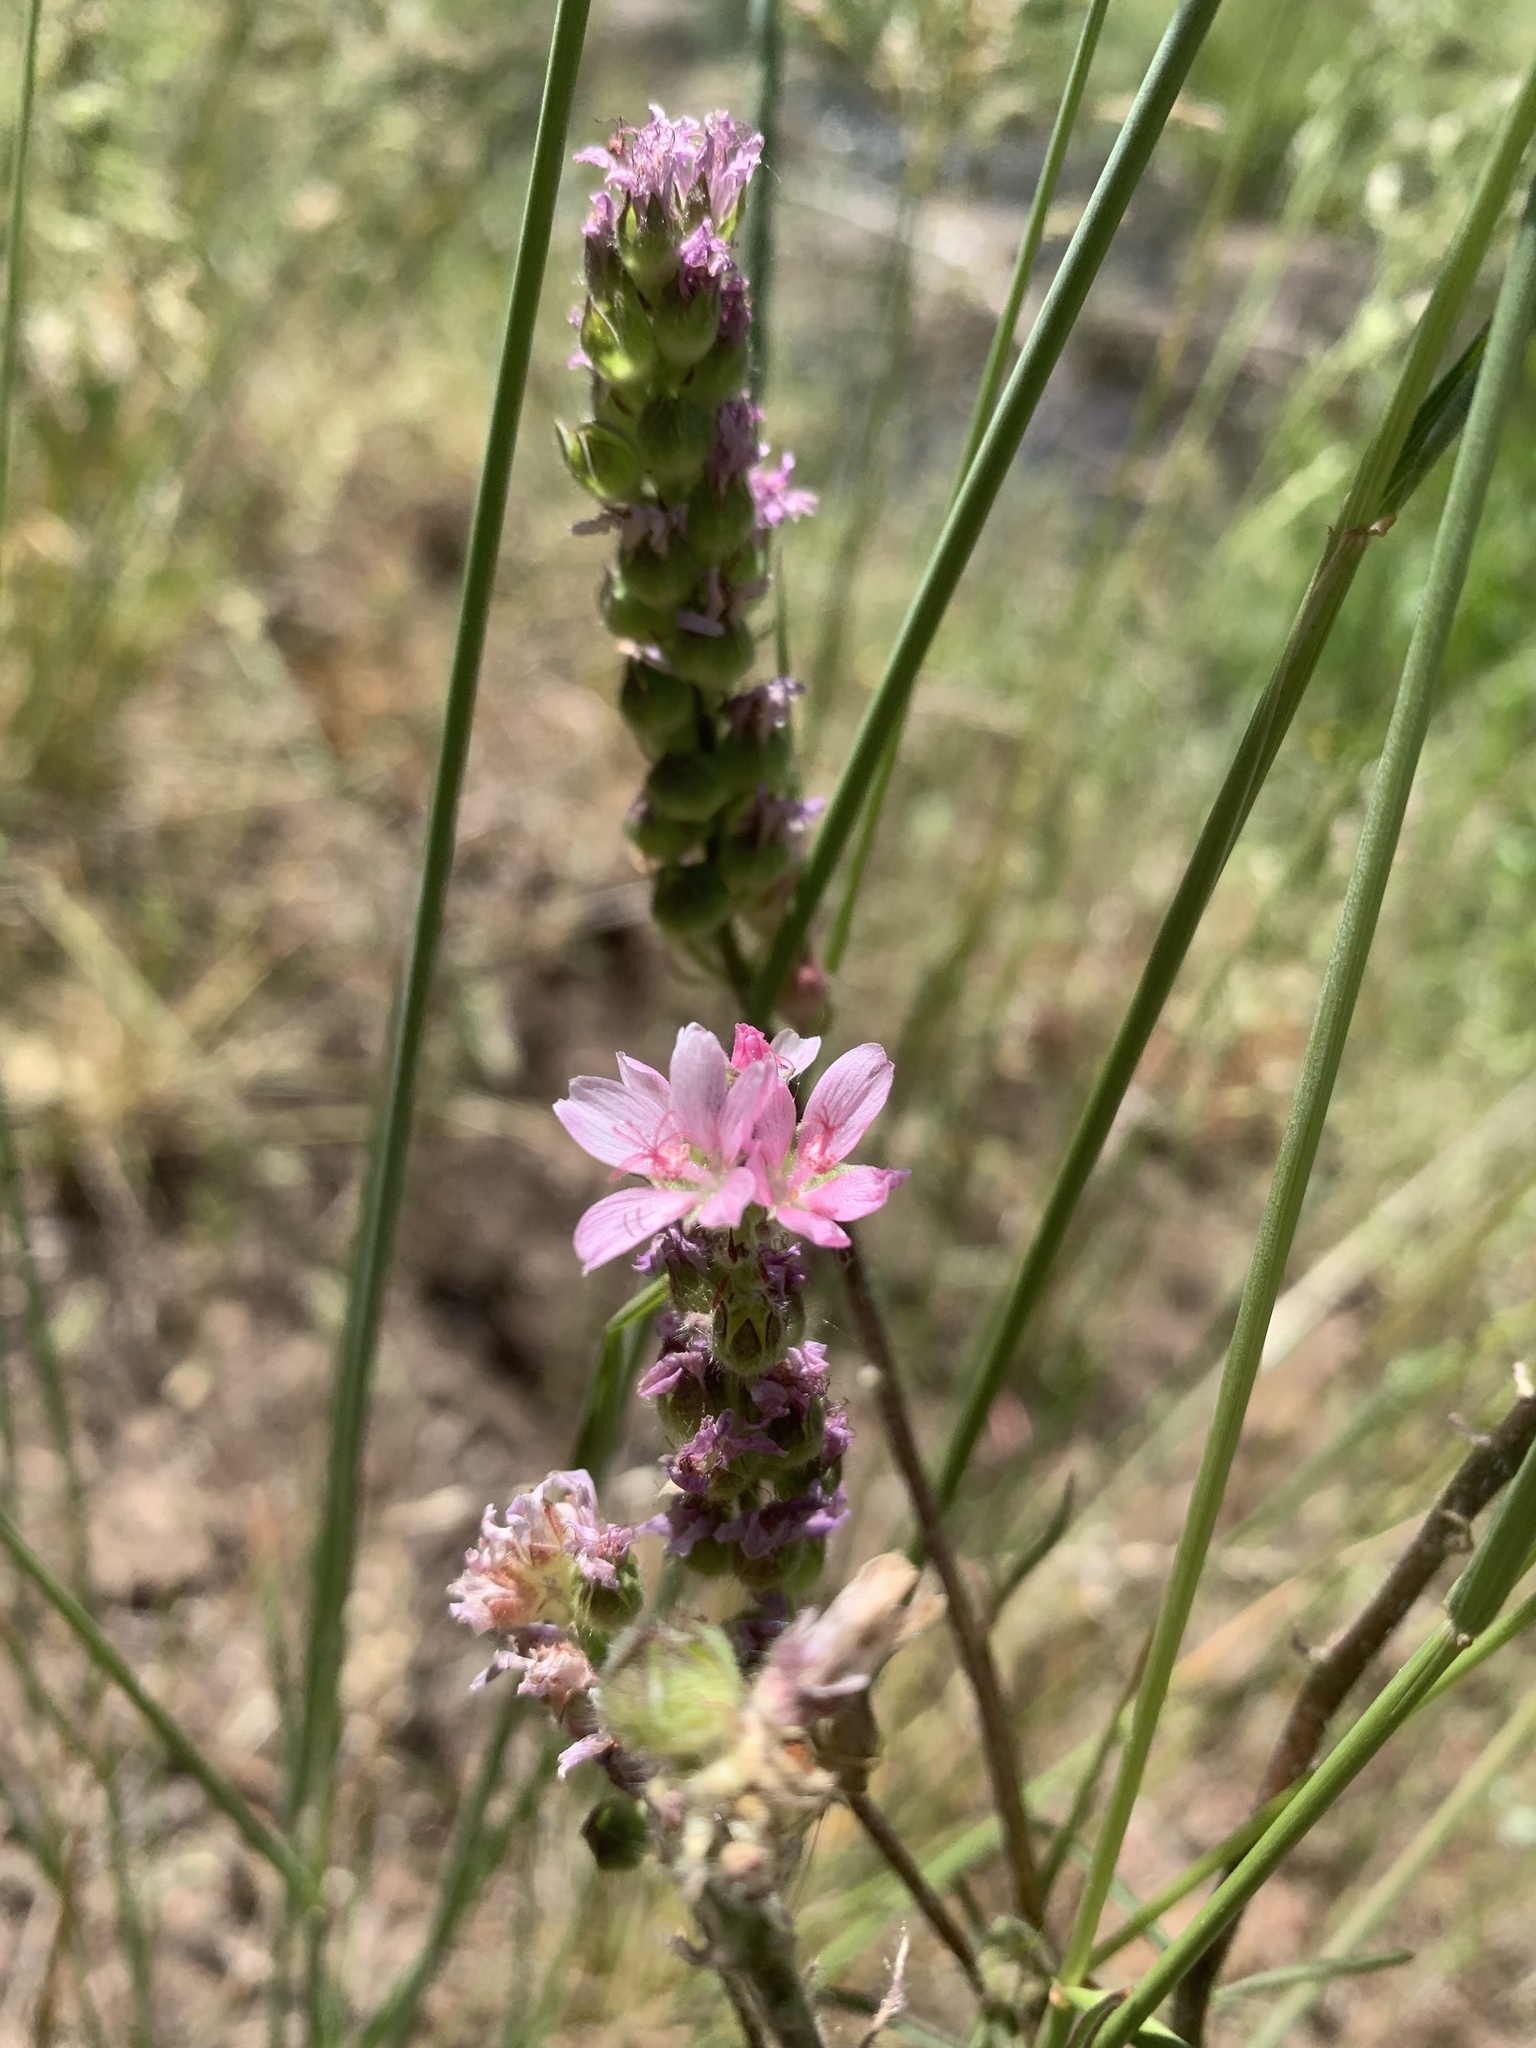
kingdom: Plantae
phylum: Tracheophyta
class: Magnoliopsida
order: Malvales
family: Malvaceae
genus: Sidalcea
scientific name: Sidalcea oregana
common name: Oregon checker-mallow
